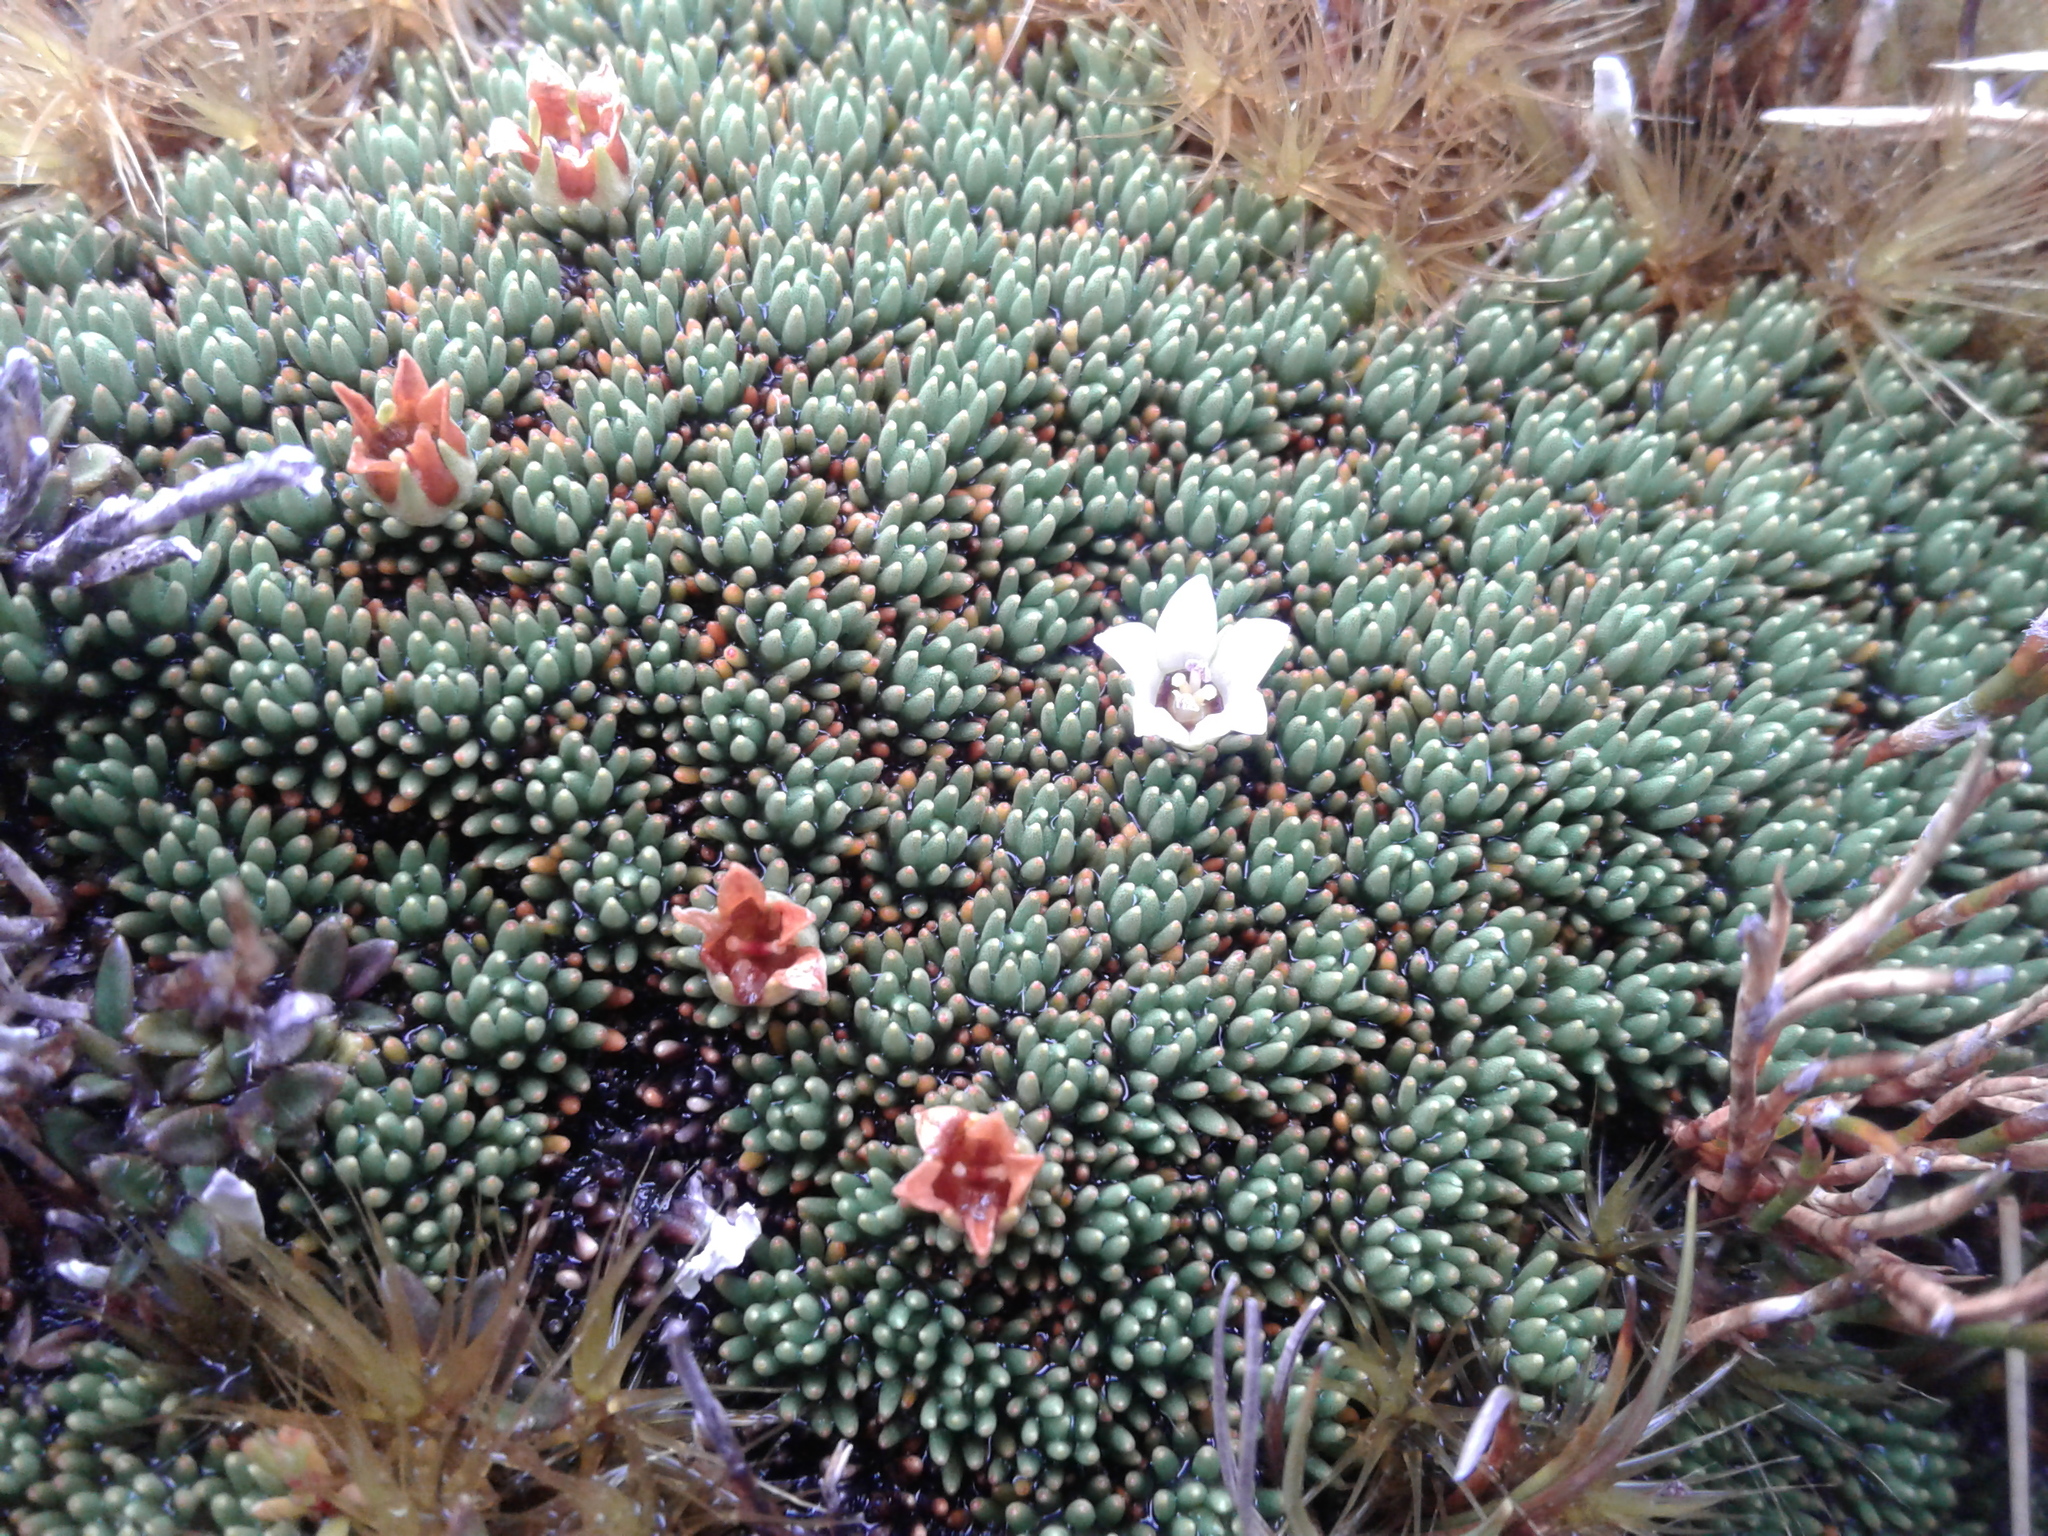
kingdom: Plantae
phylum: Tracheophyta
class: Magnoliopsida
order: Asterales
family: Stylidiaceae
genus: Donatia
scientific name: Donatia novae-zelandiae
